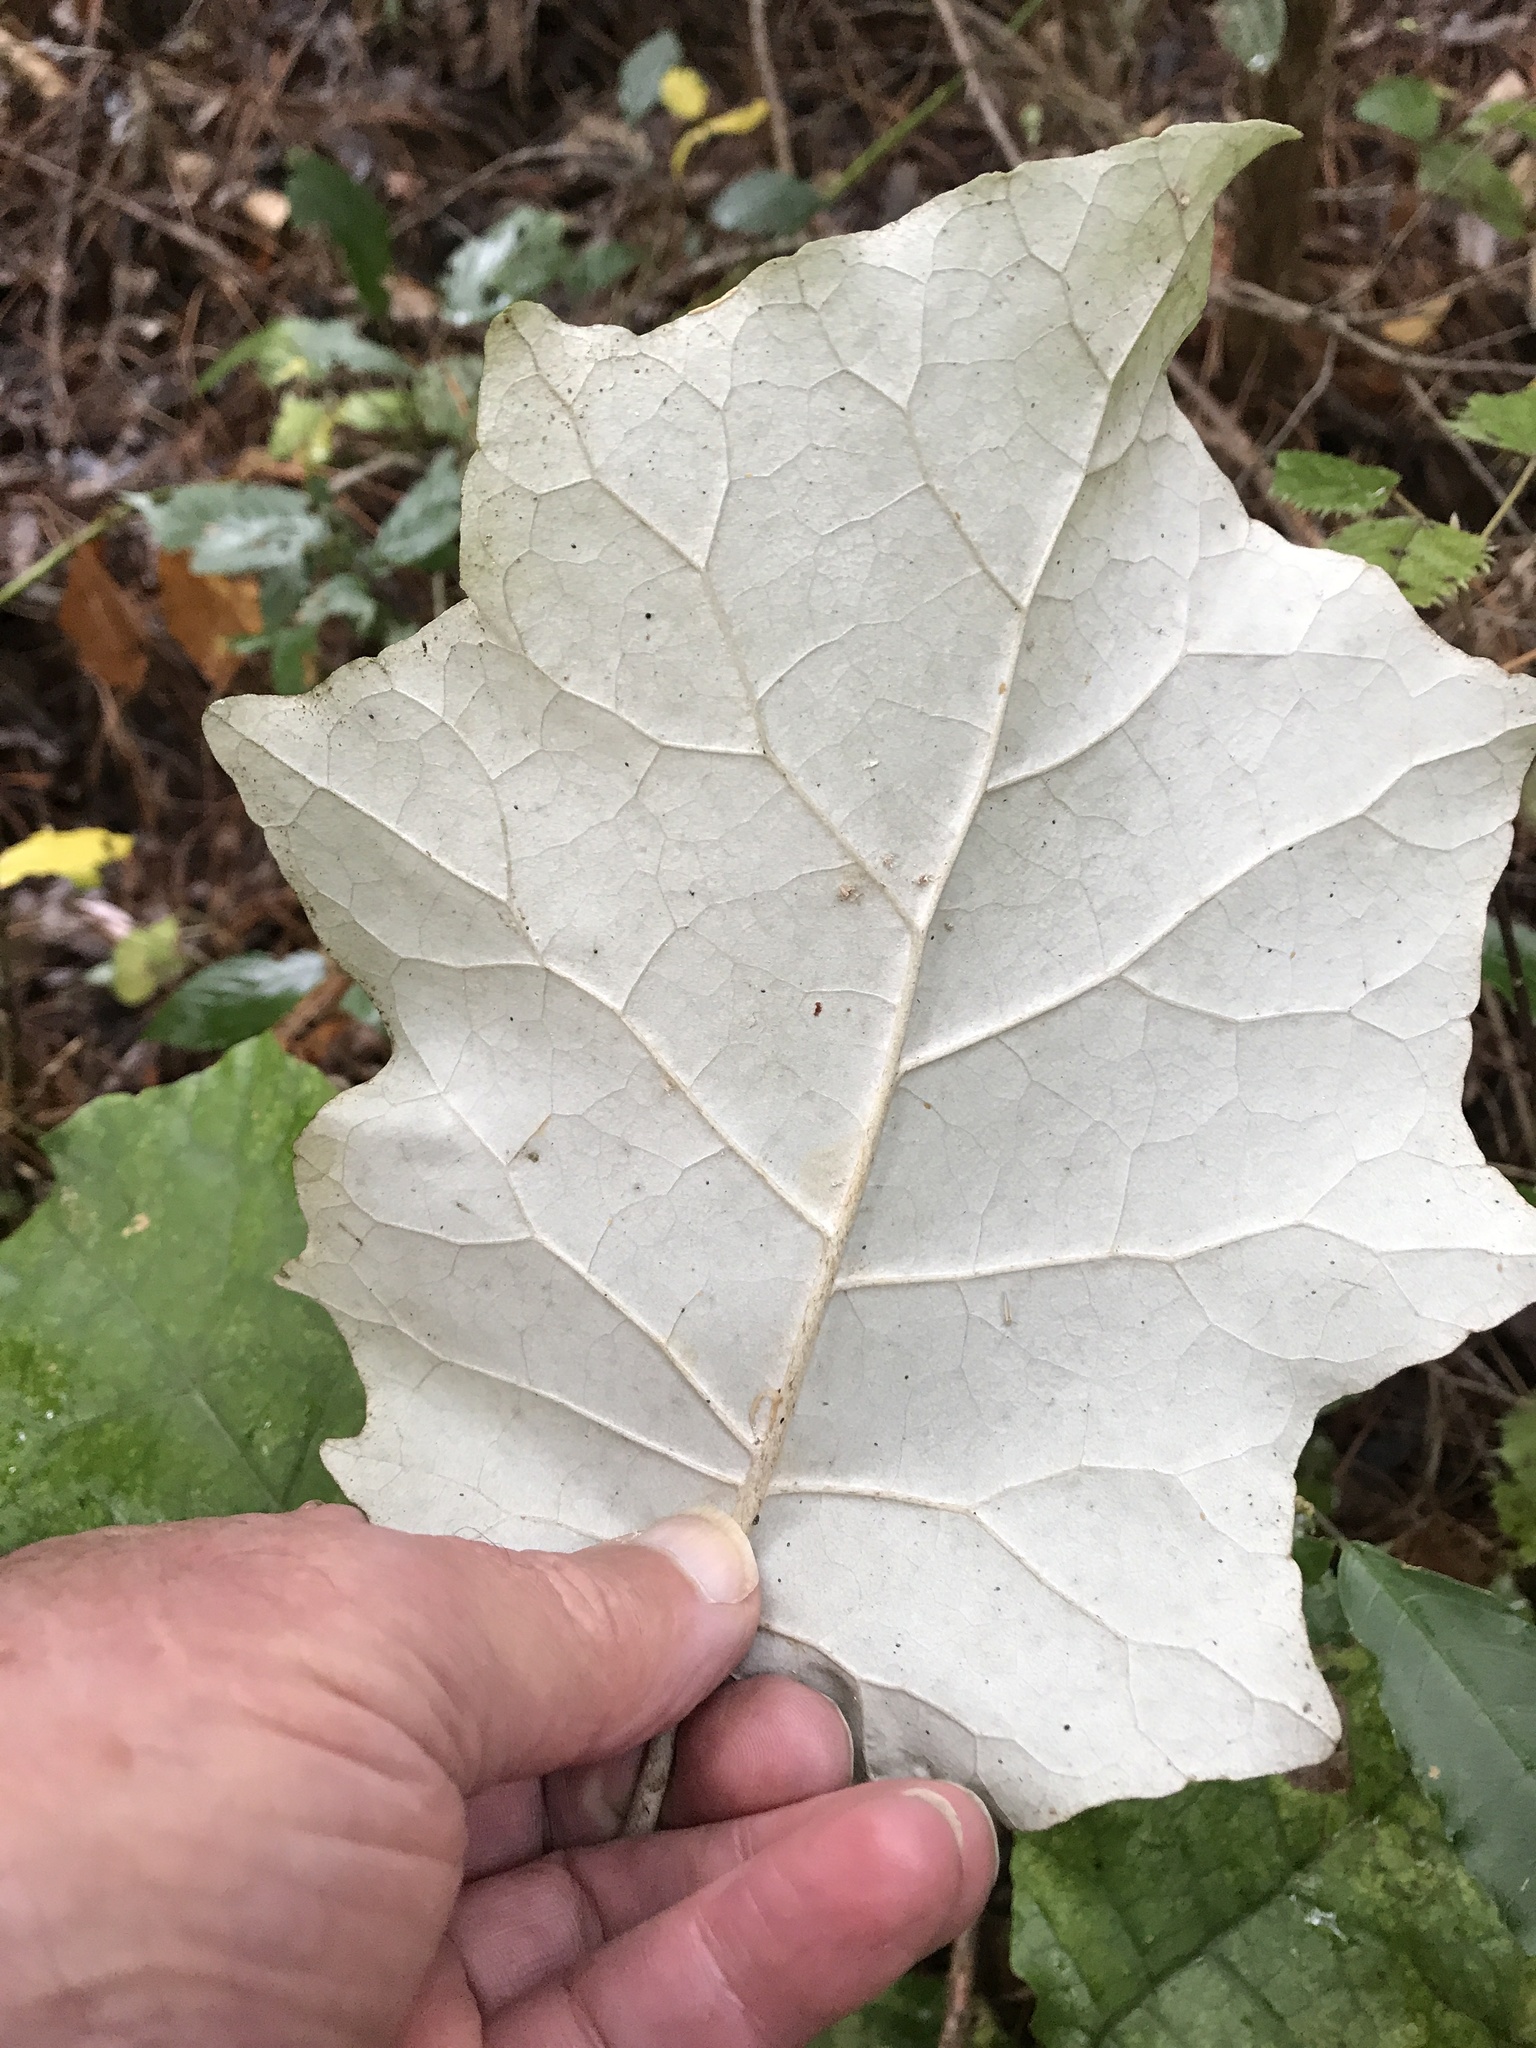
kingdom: Plantae
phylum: Tracheophyta
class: Magnoliopsida
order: Asterales
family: Asteraceae
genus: Brachyglottis
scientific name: Brachyglottis repanda
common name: Hedge ragwort
